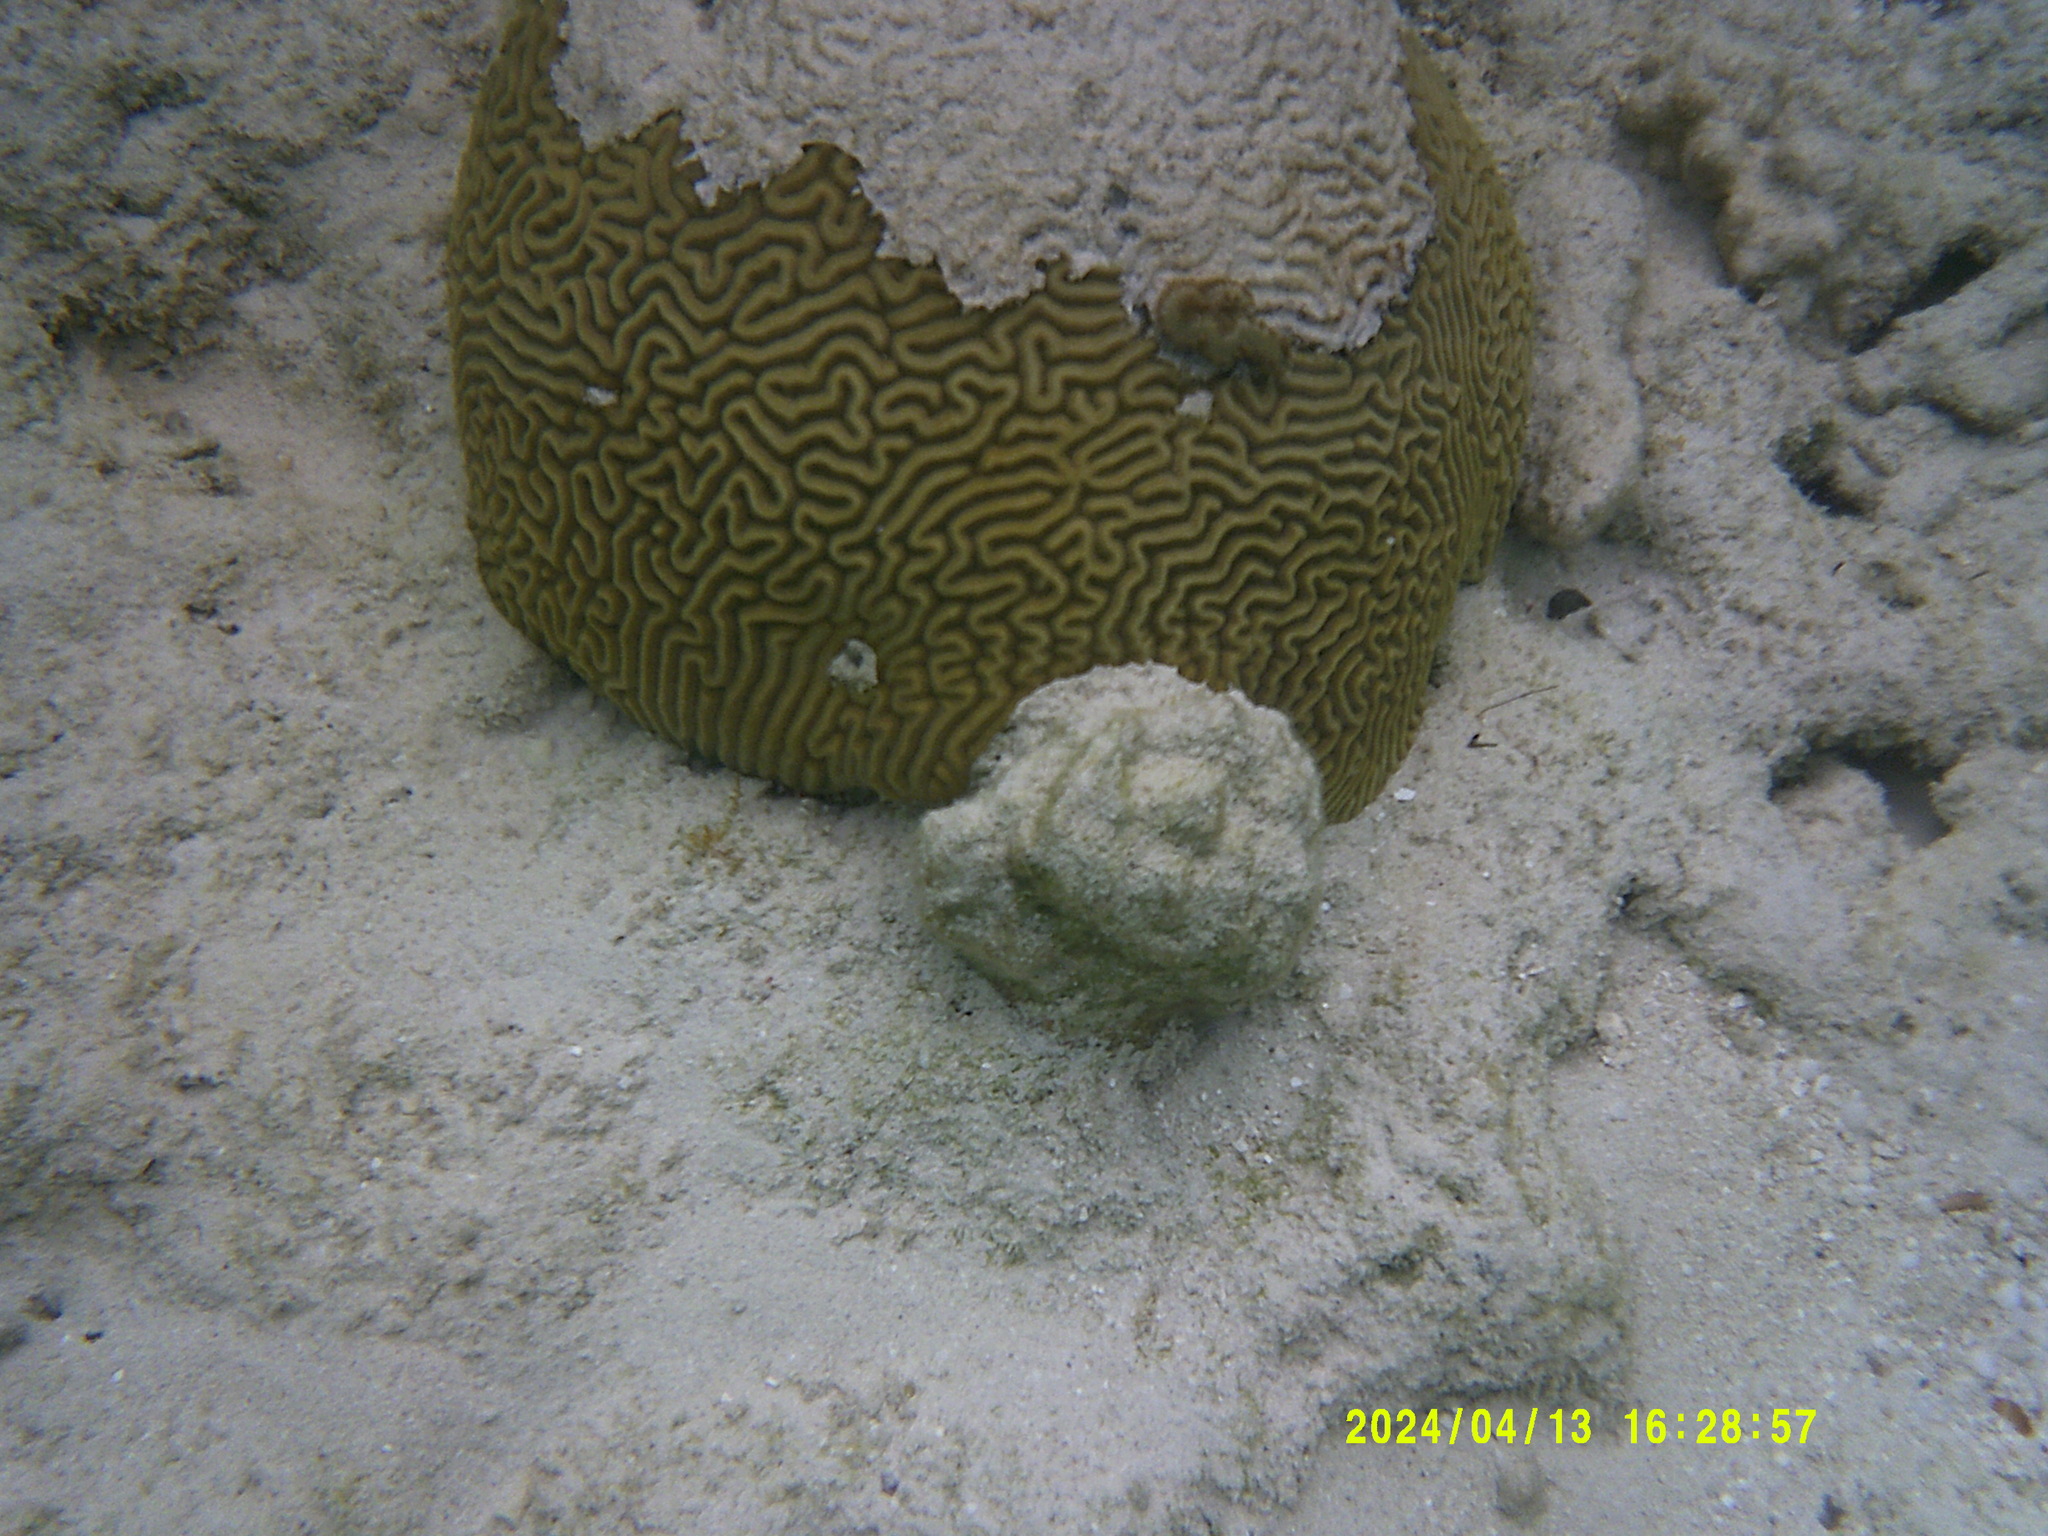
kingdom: Animalia
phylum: Cnidaria
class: Anthozoa
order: Scleractinia
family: Faviidae
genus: Pseudodiploria
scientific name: Pseudodiploria strigosa
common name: Symmetrical brain coral
